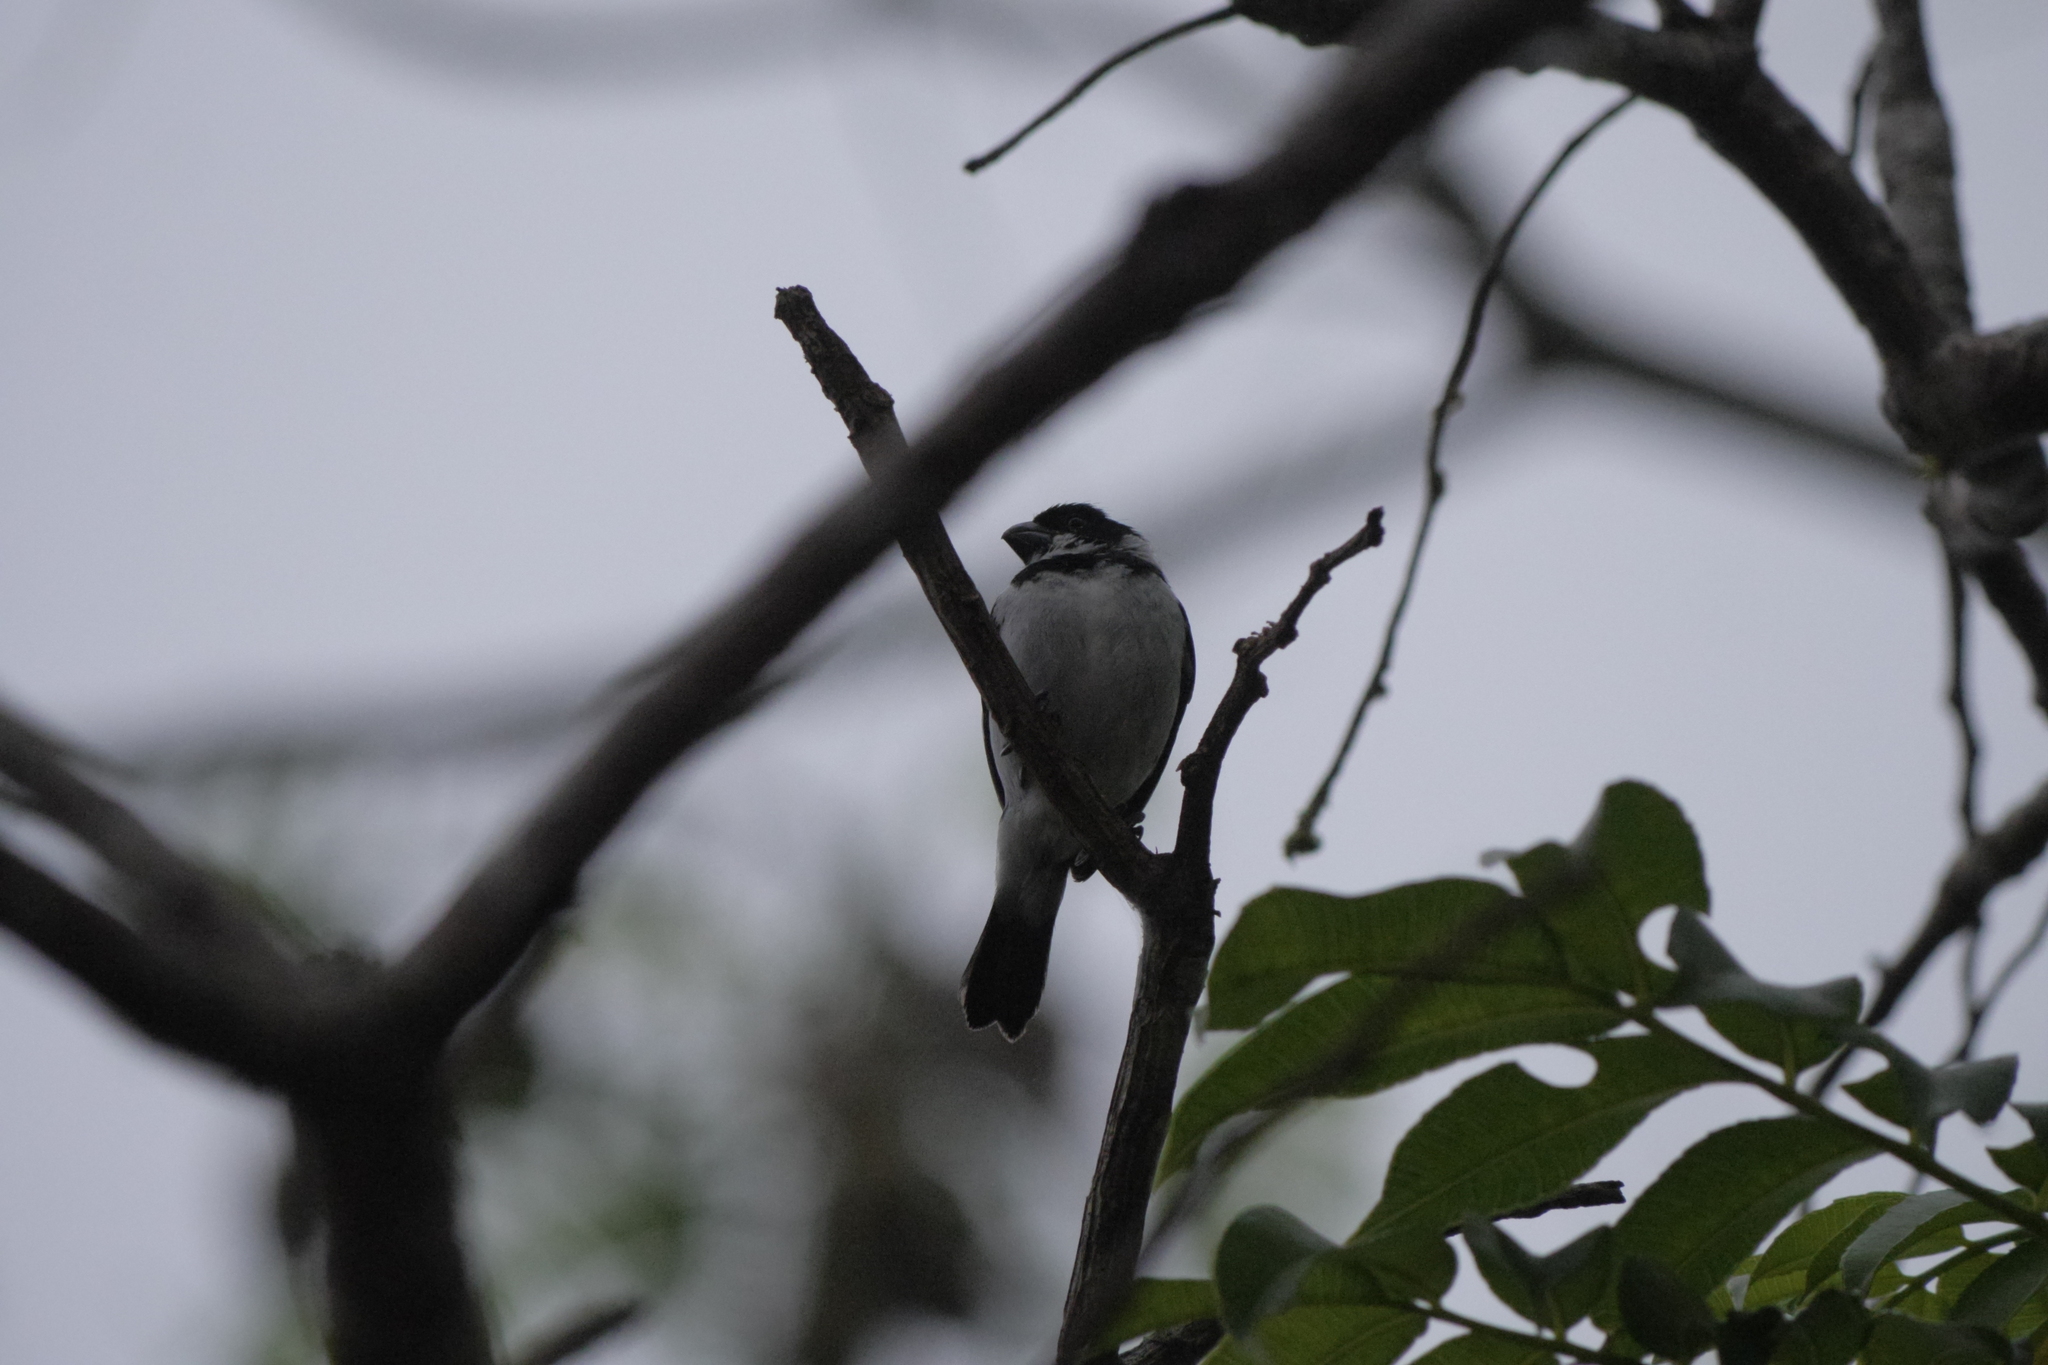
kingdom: Animalia
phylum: Chordata
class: Aves
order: Passeriformes
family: Thraupidae
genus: Sporophila
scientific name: Sporophila corvina
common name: Variable seedeater
